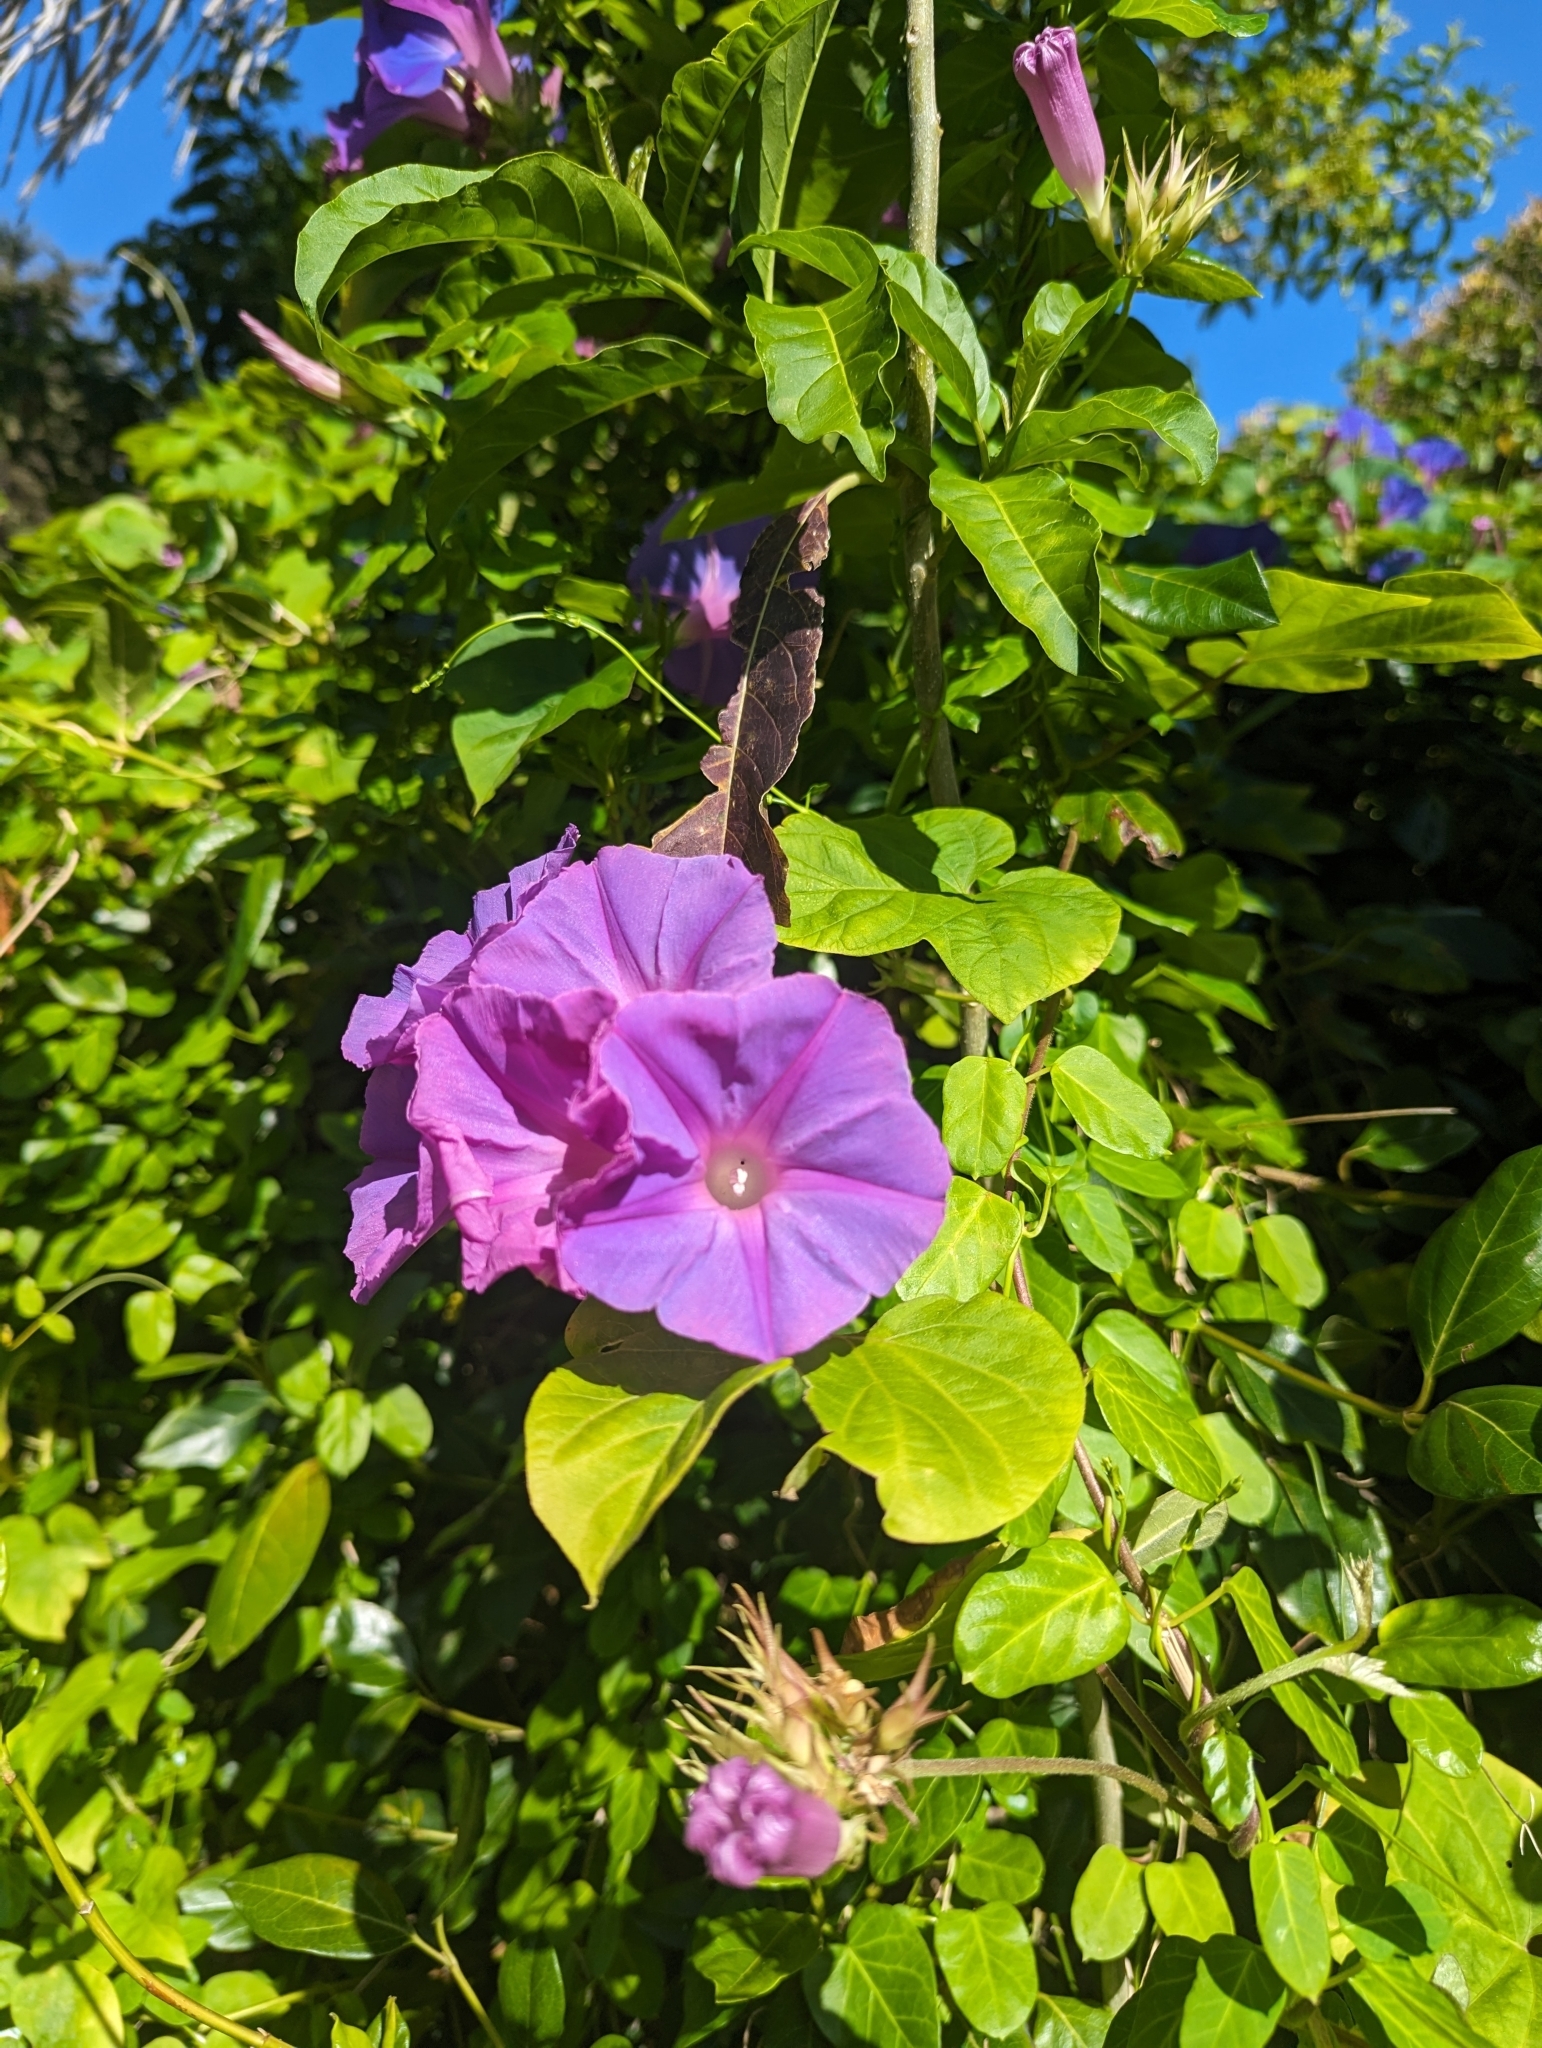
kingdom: Plantae
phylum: Tracheophyta
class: Magnoliopsida
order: Solanales
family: Convolvulaceae
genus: Ipomoea
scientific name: Ipomoea indica
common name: Blue dawnflower
